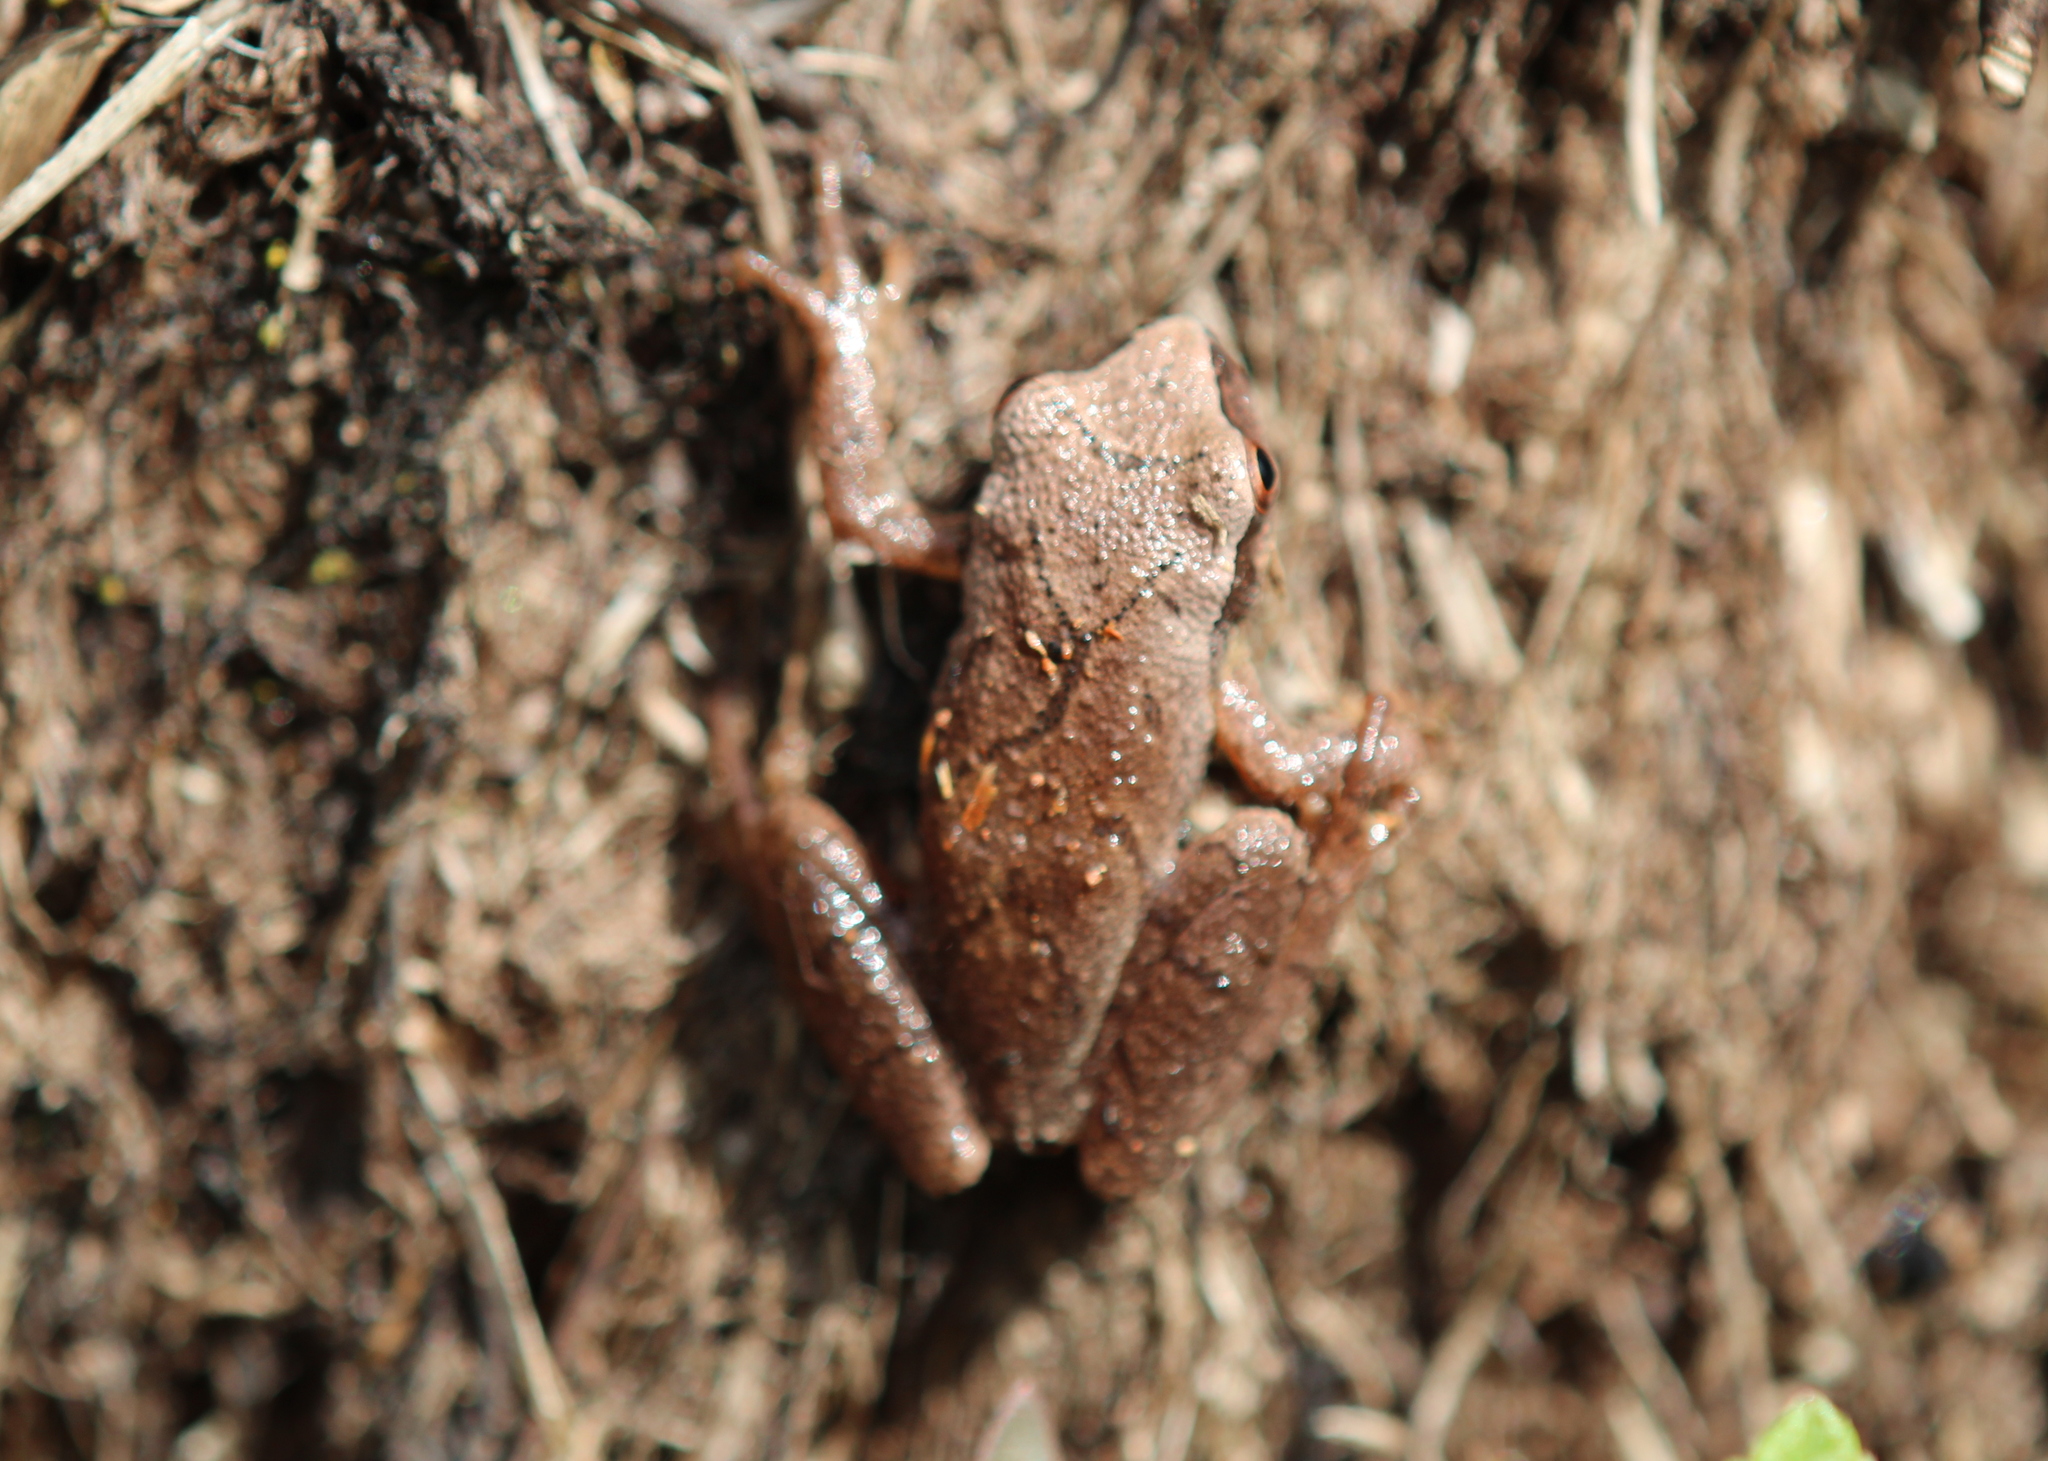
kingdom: Animalia
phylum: Chordata
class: Amphibia
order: Anura
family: Hylidae
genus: Pseudacris
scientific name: Pseudacris crucifer
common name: Spring peeper
